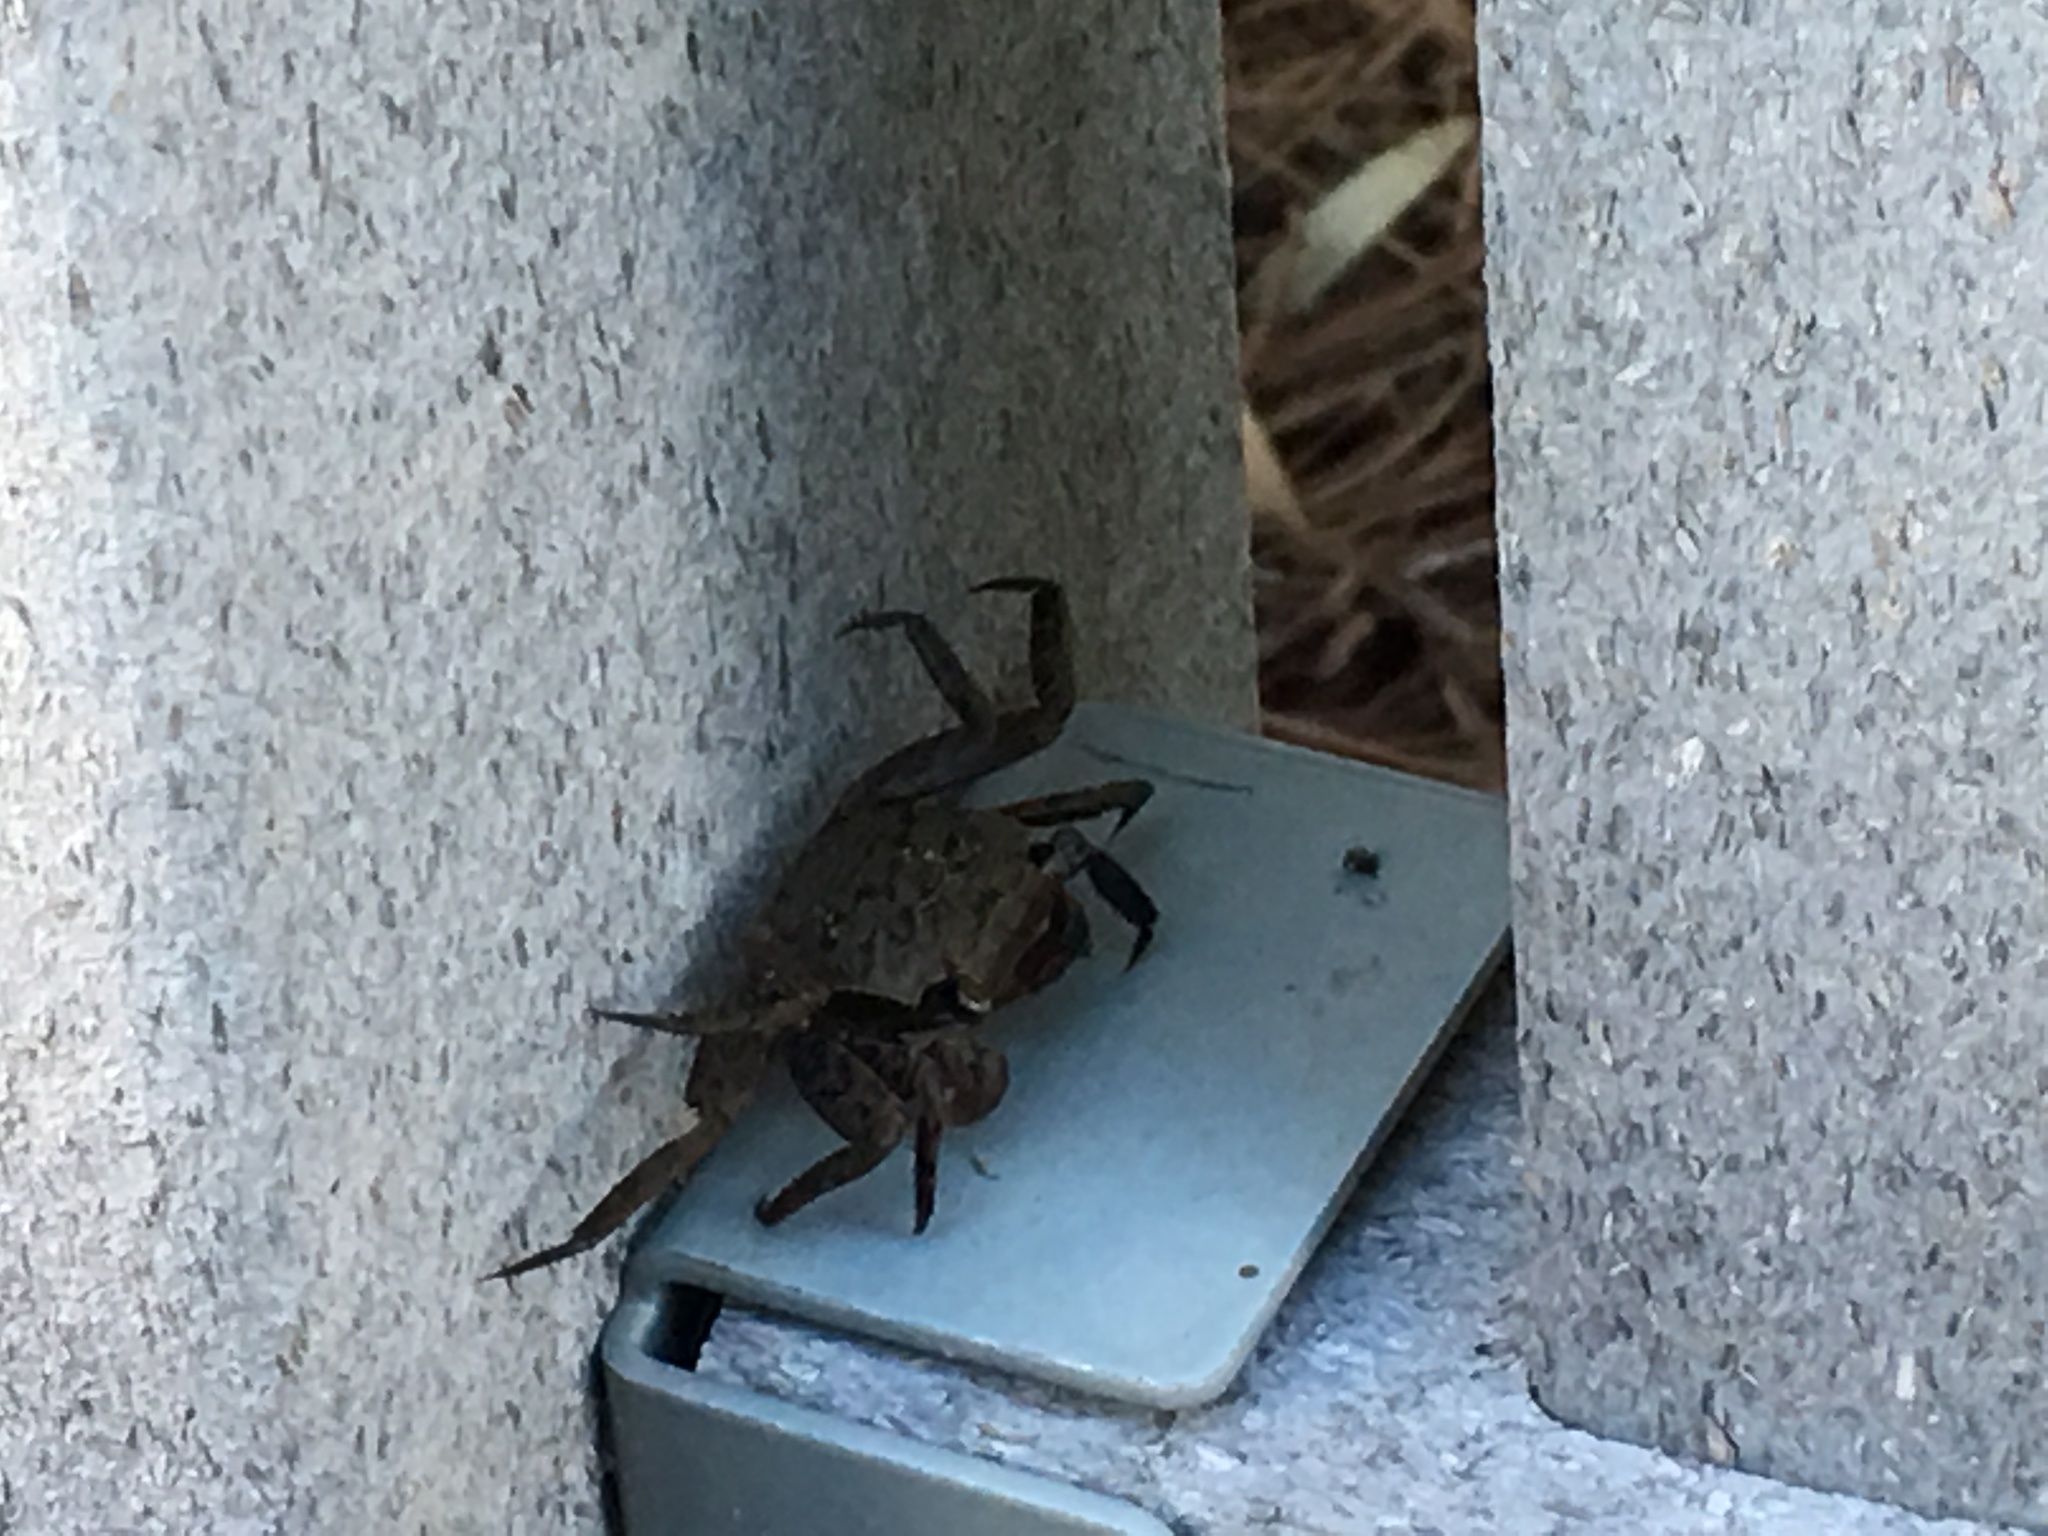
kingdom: Animalia
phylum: Arthropoda
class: Malacostraca
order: Decapoda
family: Sesarmidae
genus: Armases
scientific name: Armases cinereum
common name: Squareback marsh crab
